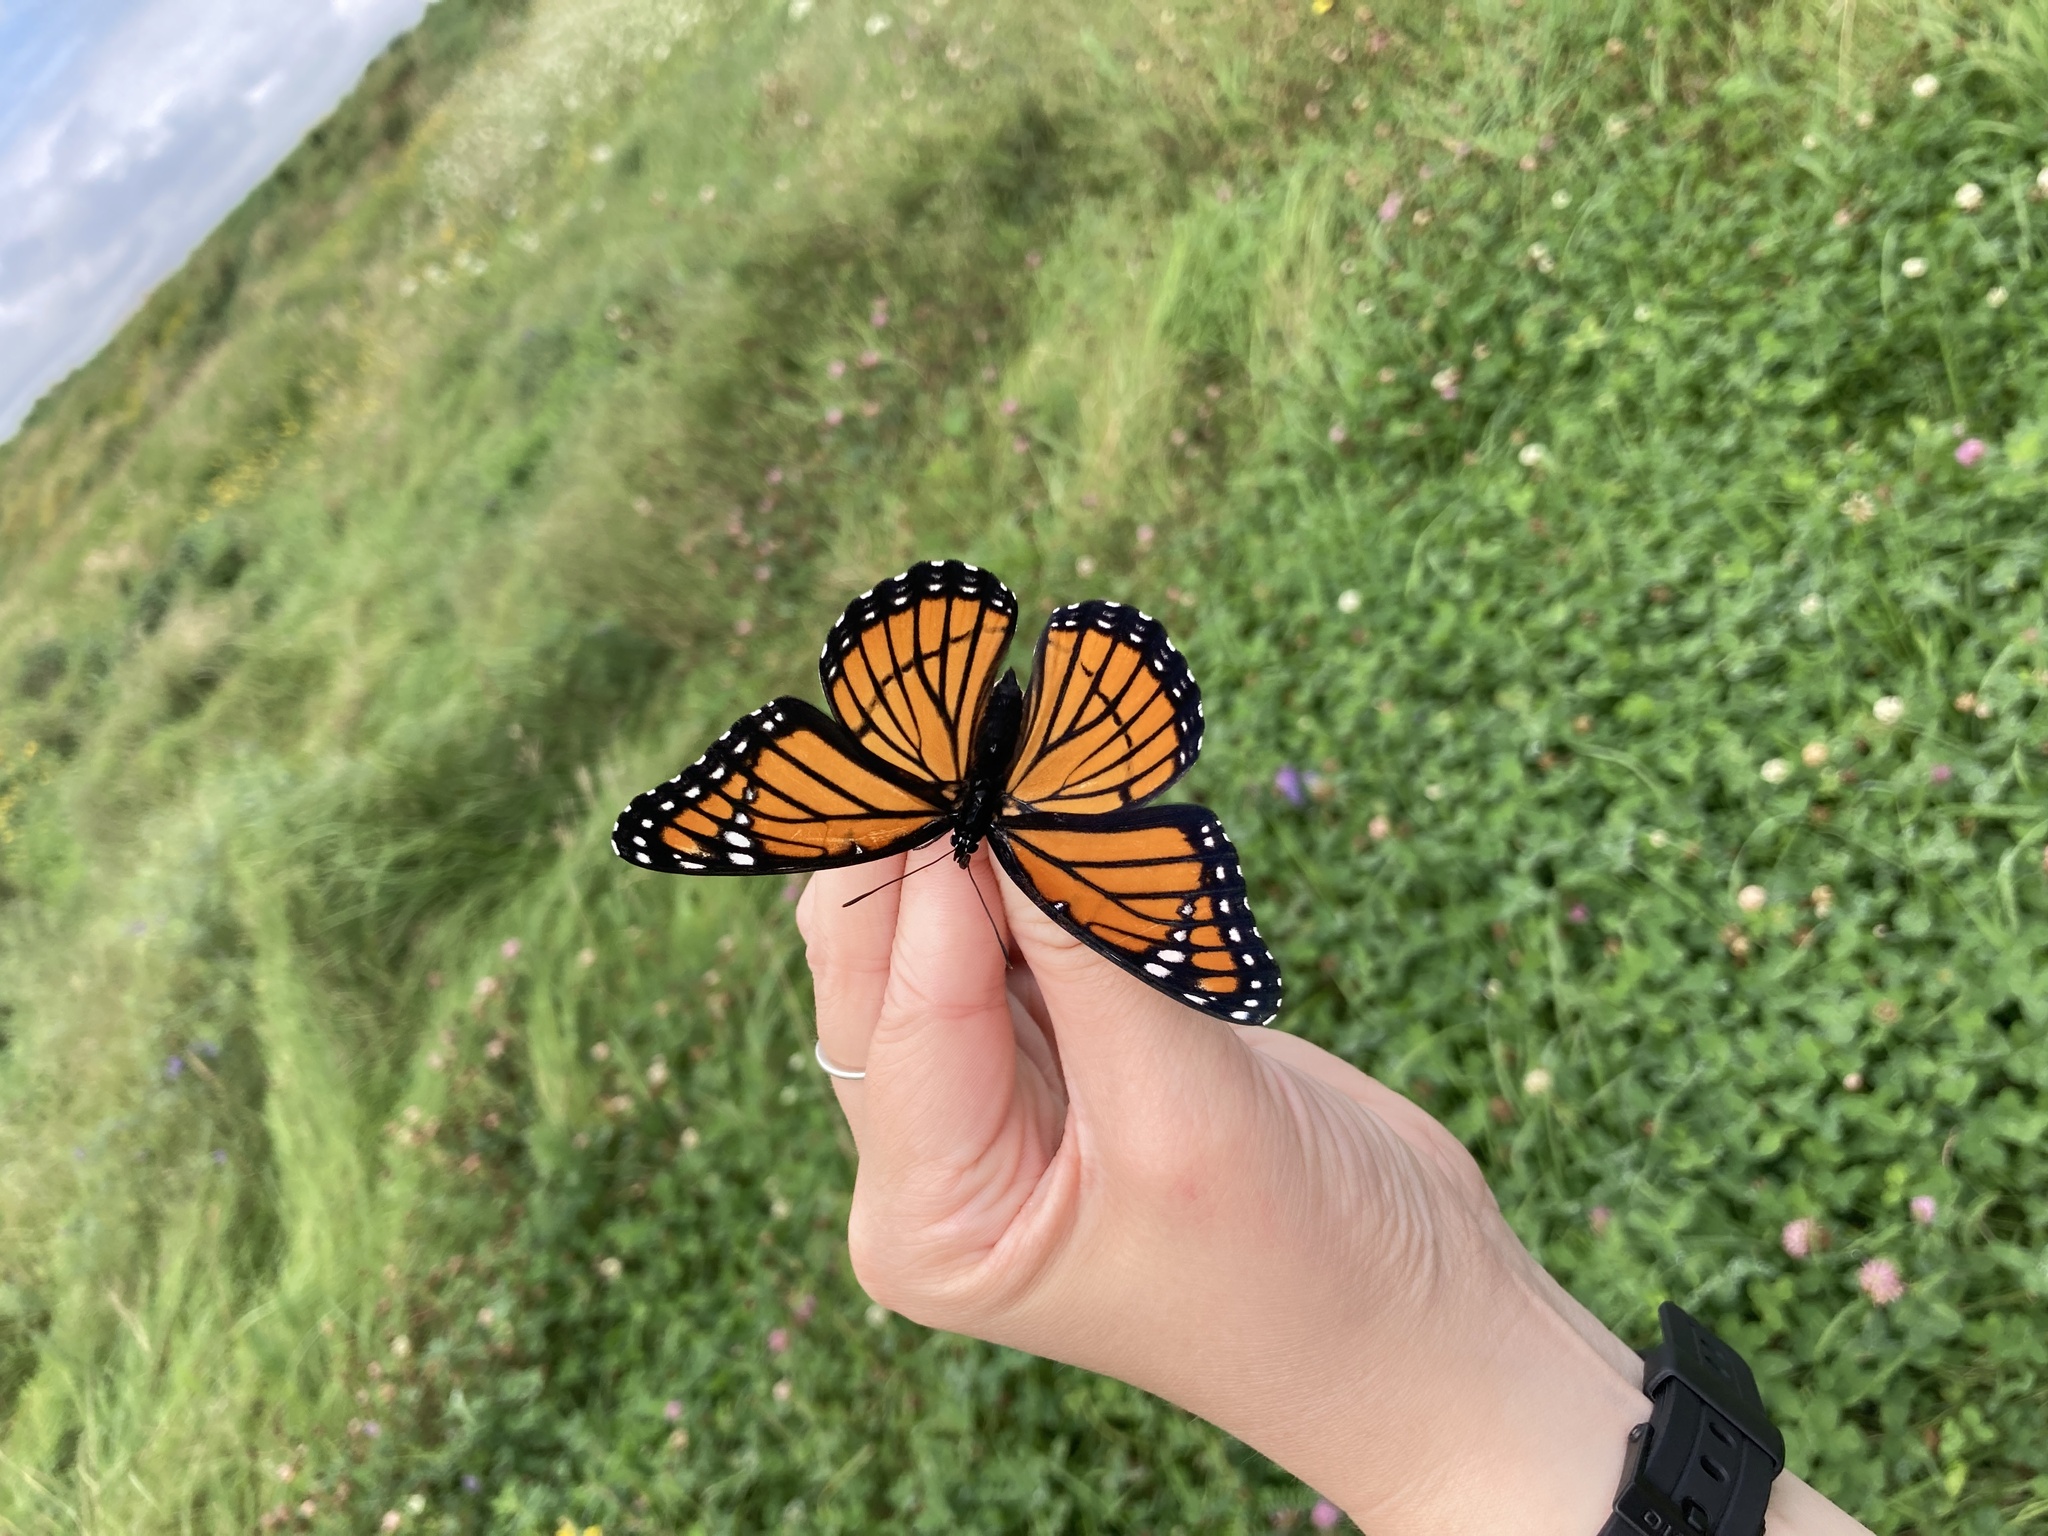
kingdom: Animalia
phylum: Arthropoda
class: Insecta
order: Lepidoptera
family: Nymphalidae
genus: Limenitis
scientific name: Limenitis archippus
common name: Viceroy
